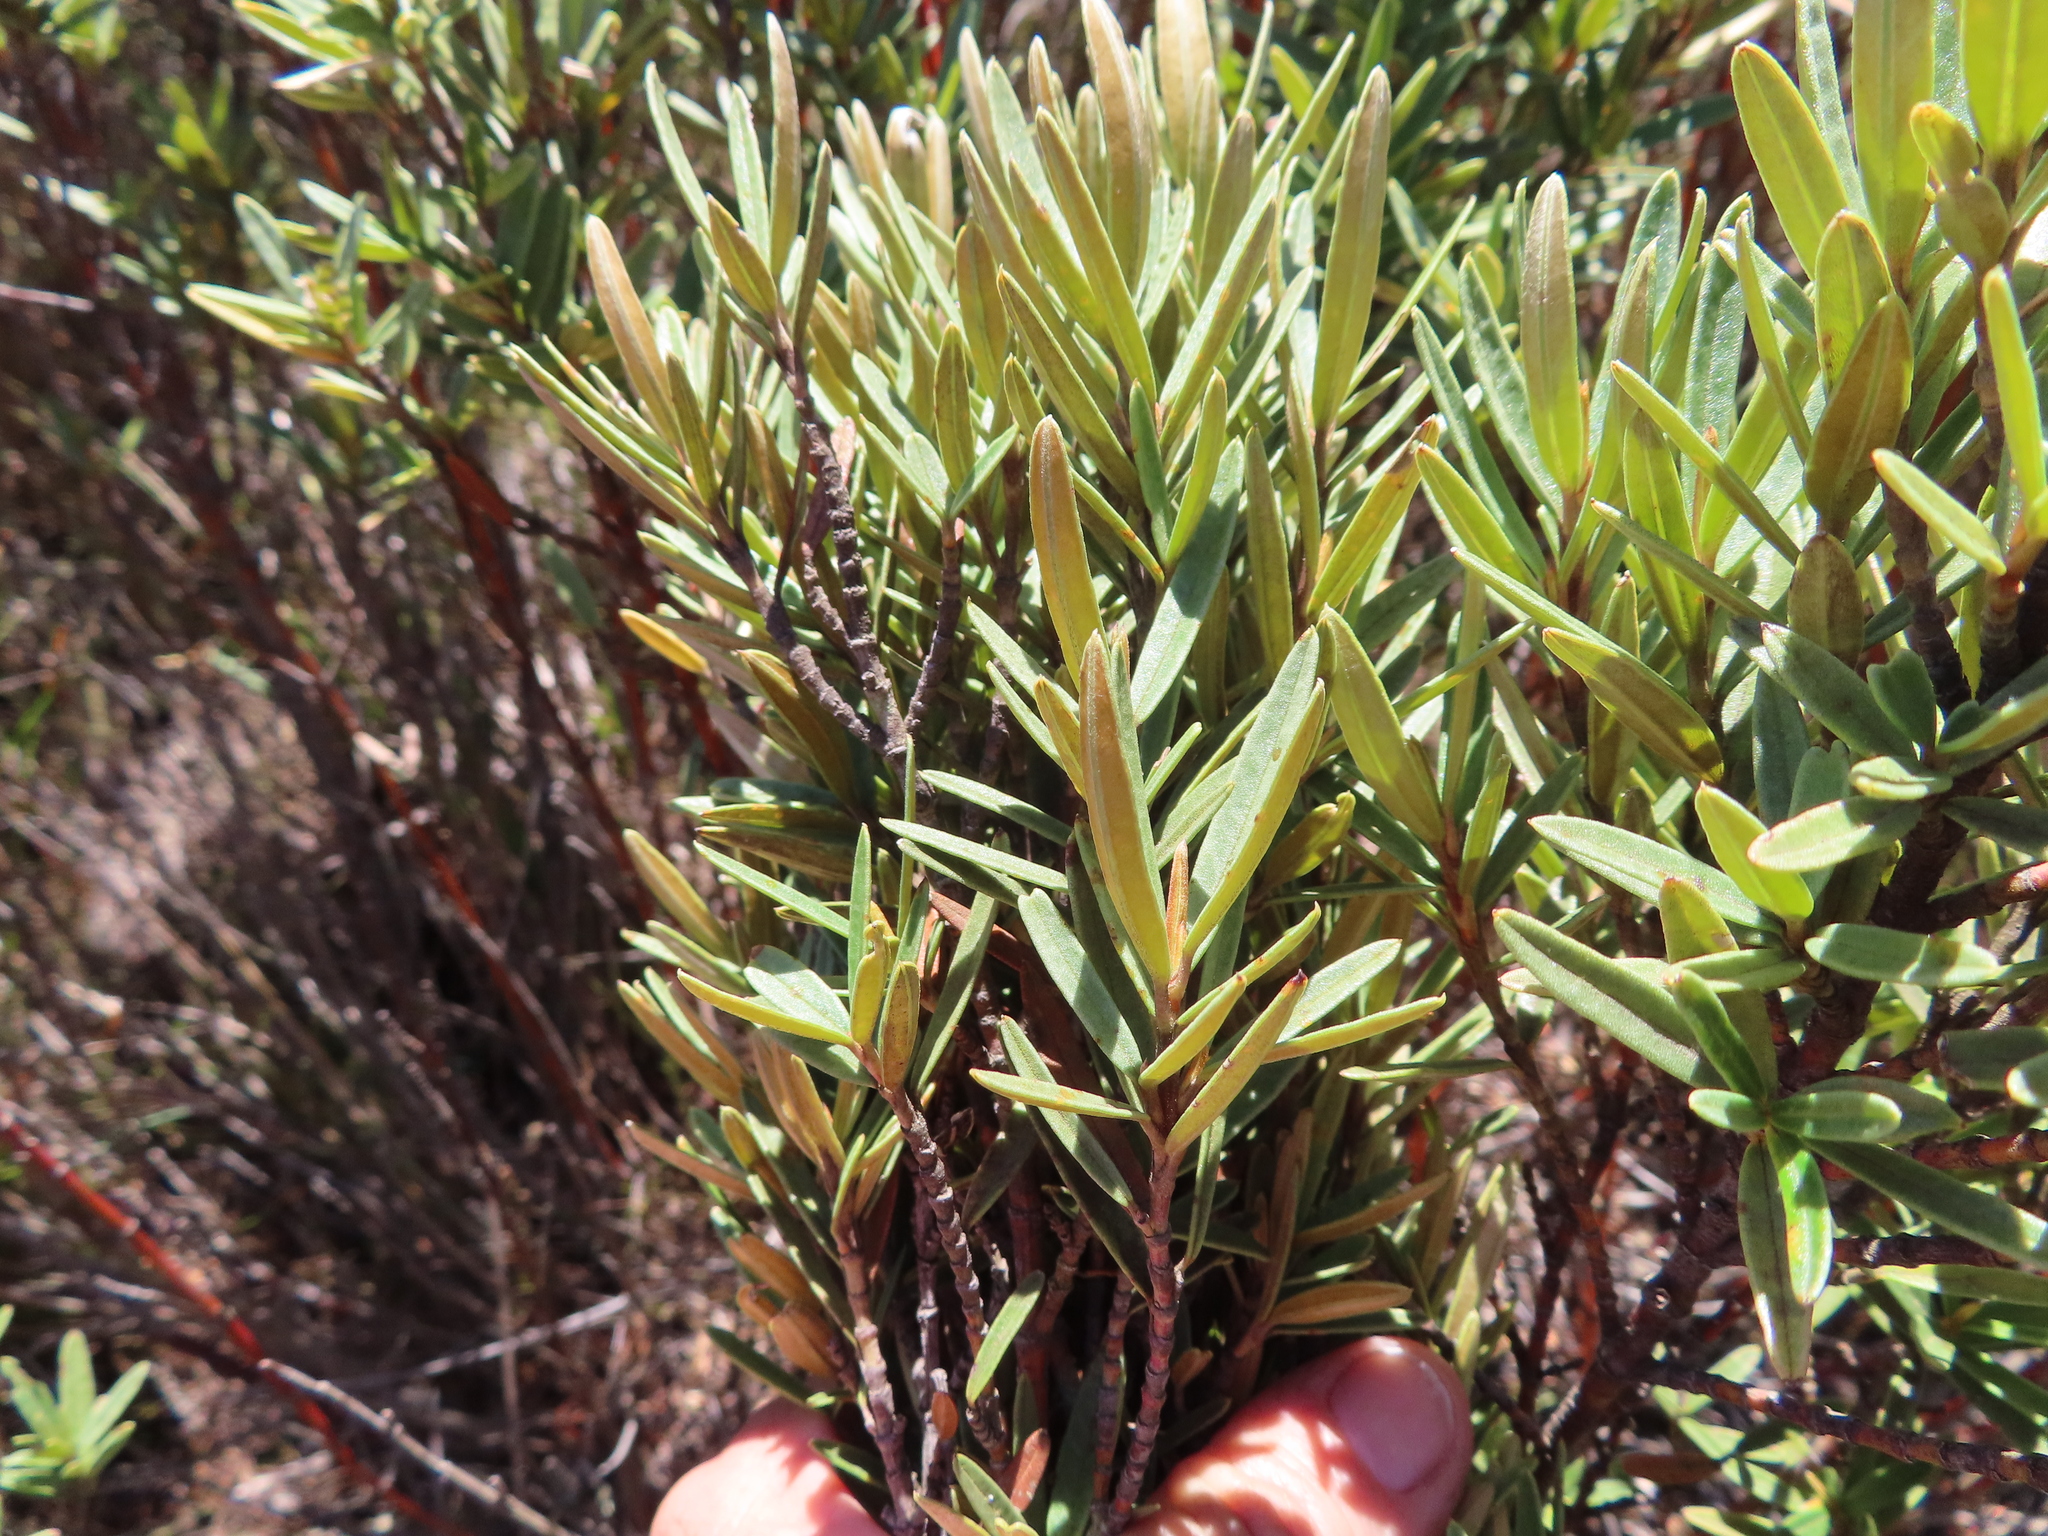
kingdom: Plantae
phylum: Tracheophyta
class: Magnoliopsida
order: Cornales
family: Grubbiaceae
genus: Grubbia
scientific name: Grubbia tomentosa
